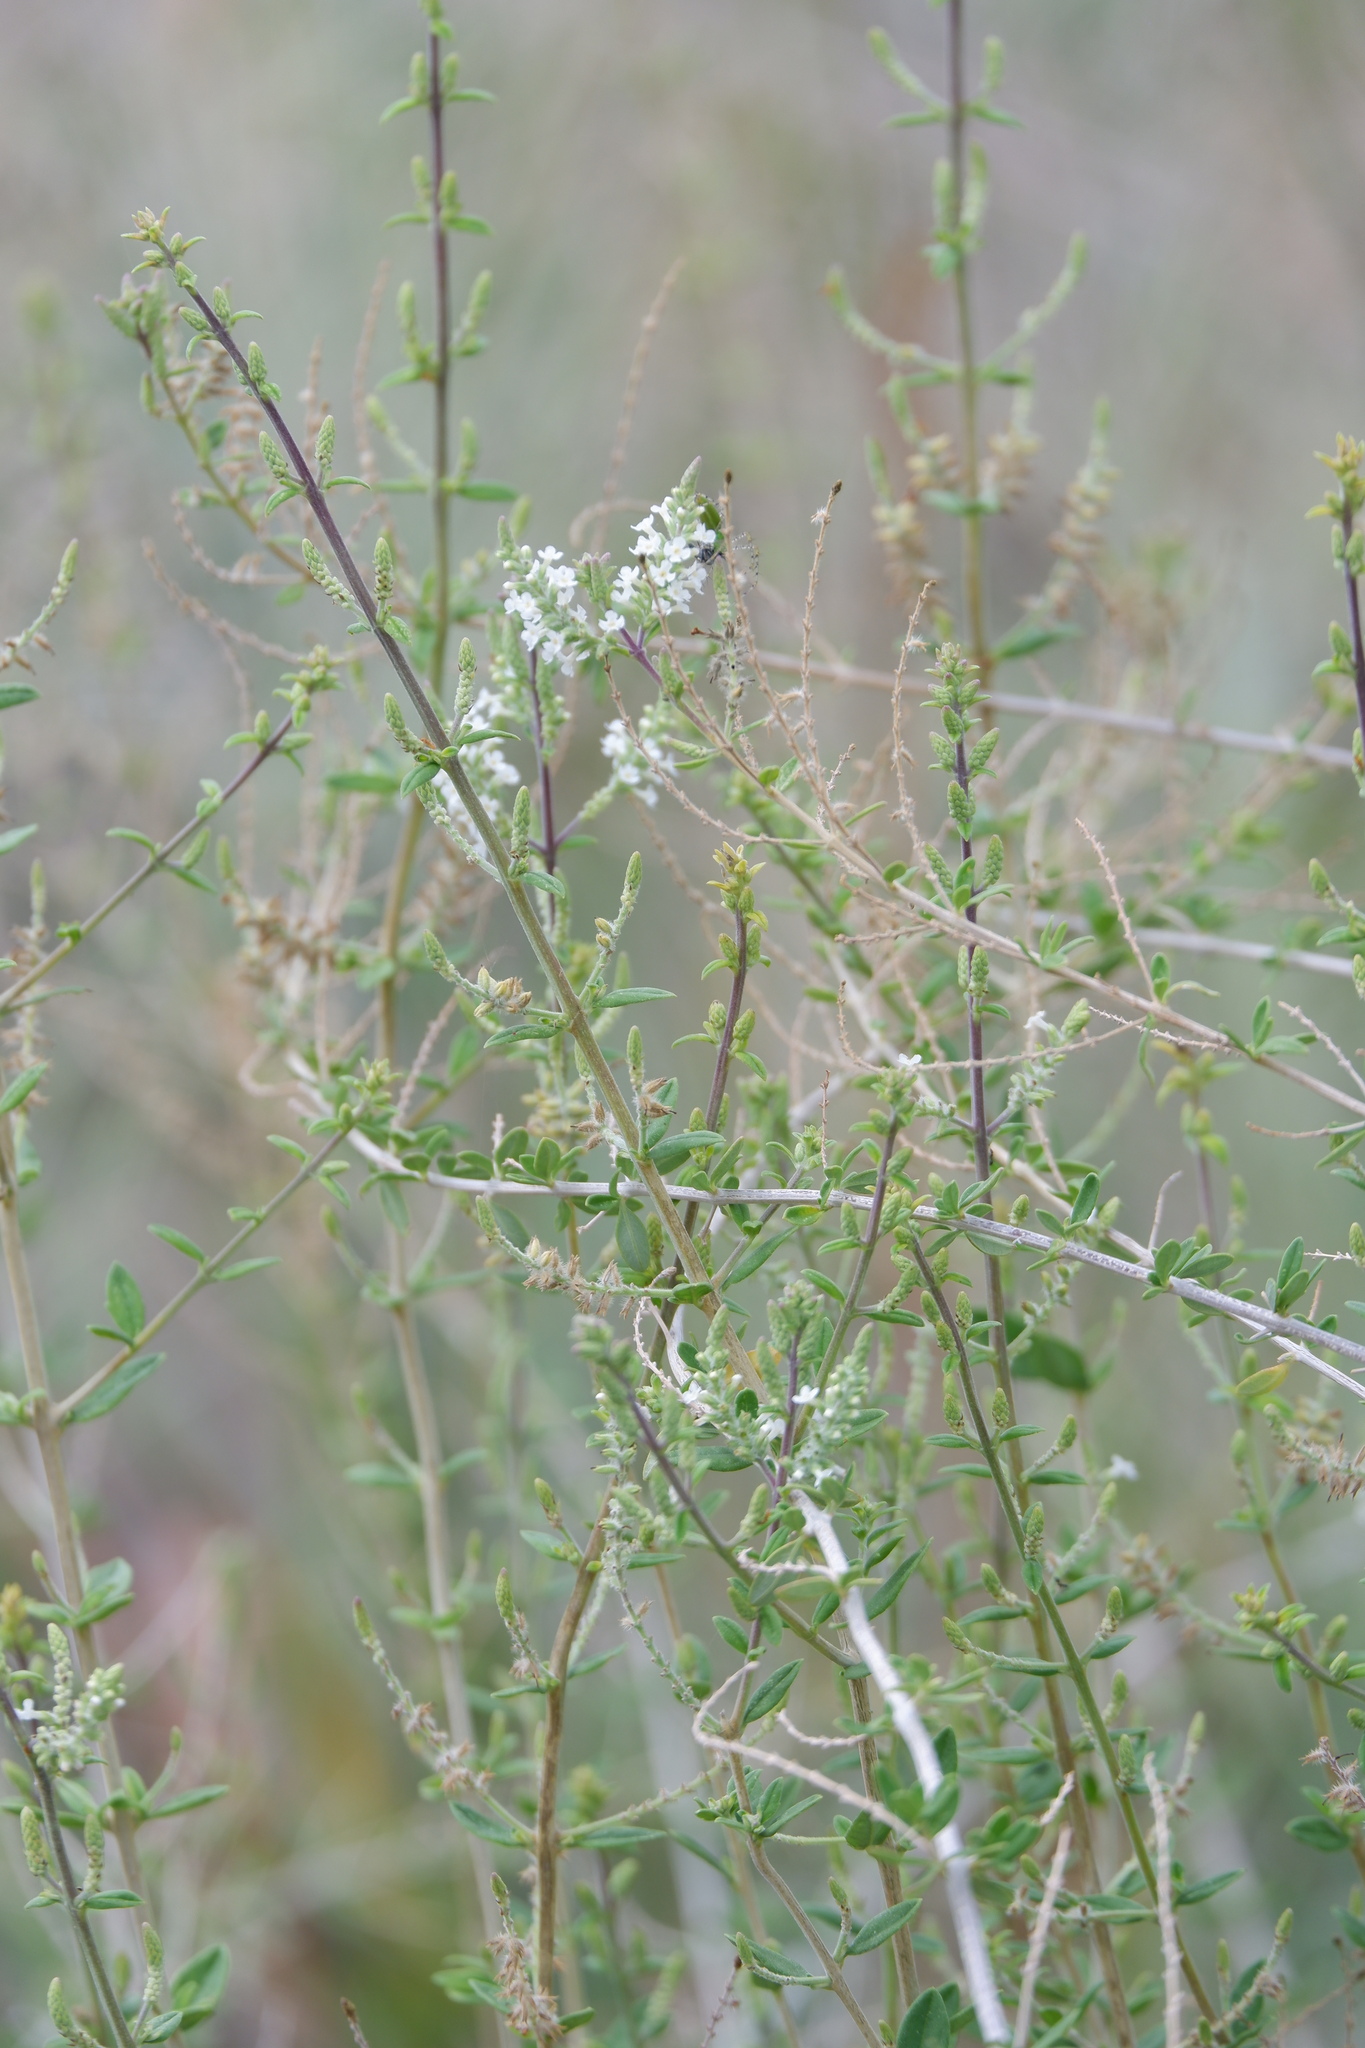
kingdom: Plantae
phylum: Tracheophyta
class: Magnoliopsida
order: Lamiales
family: Verbenaceae
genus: Aloysia
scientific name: Aloysia gratissima
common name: Common bee-brush
